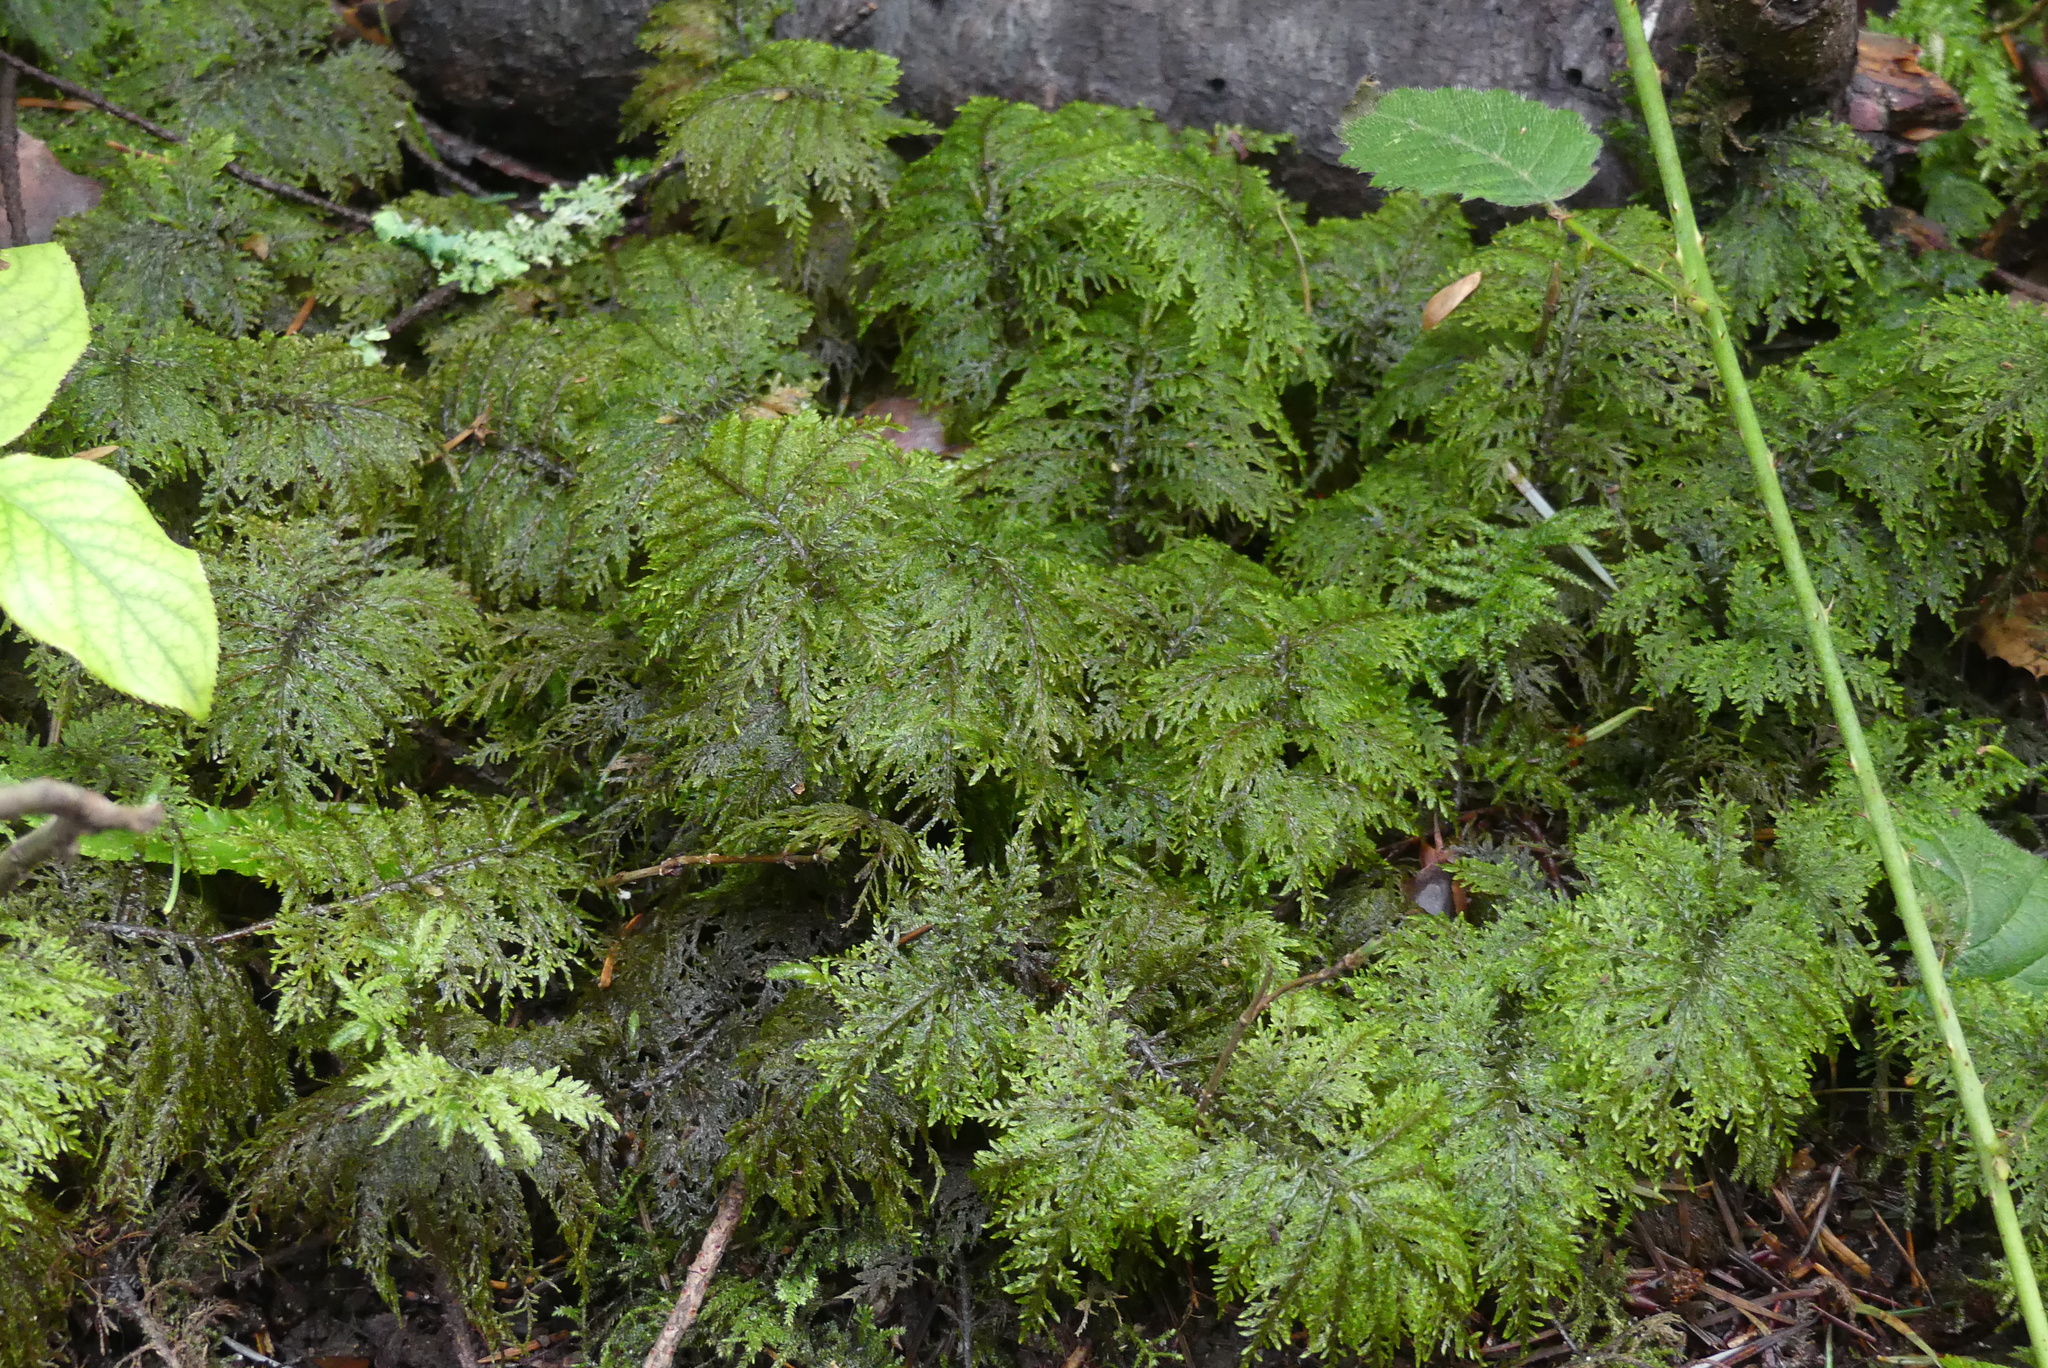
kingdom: Plantae
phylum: Bryophyta
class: Bryopsida
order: Hypnales
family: Hylocomiaceae
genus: Hylocomium
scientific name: Hylocomium splendens
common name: Stairstep moss
